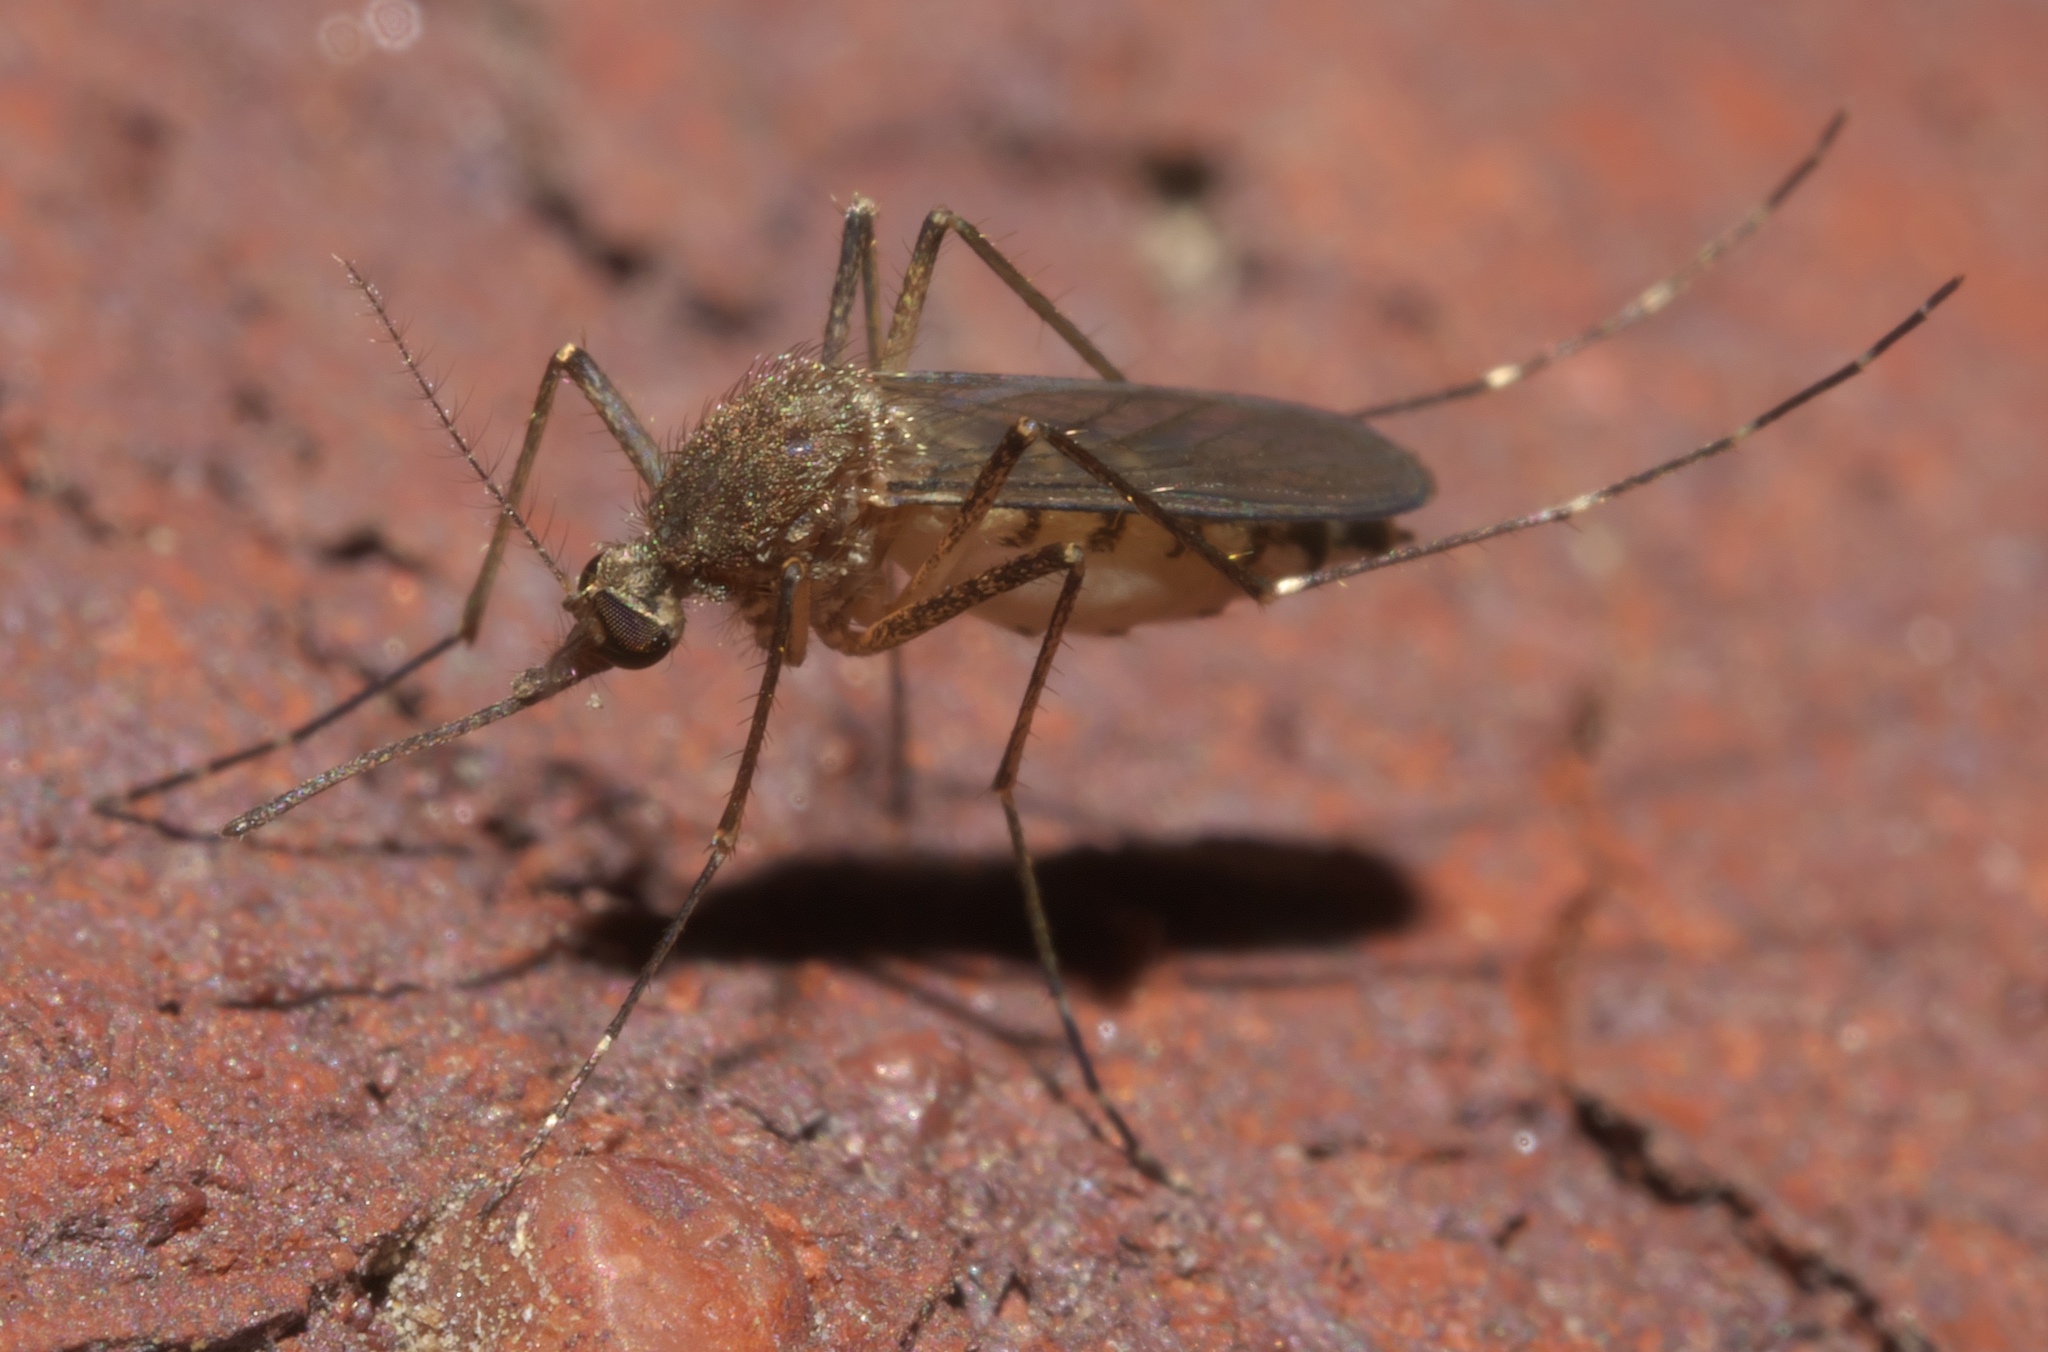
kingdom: Animalia
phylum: Arthropoda
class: Insecta
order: Diptera
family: Culicidae
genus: Aedes
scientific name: Aedes vexans
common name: Inland floodwater mosquito
